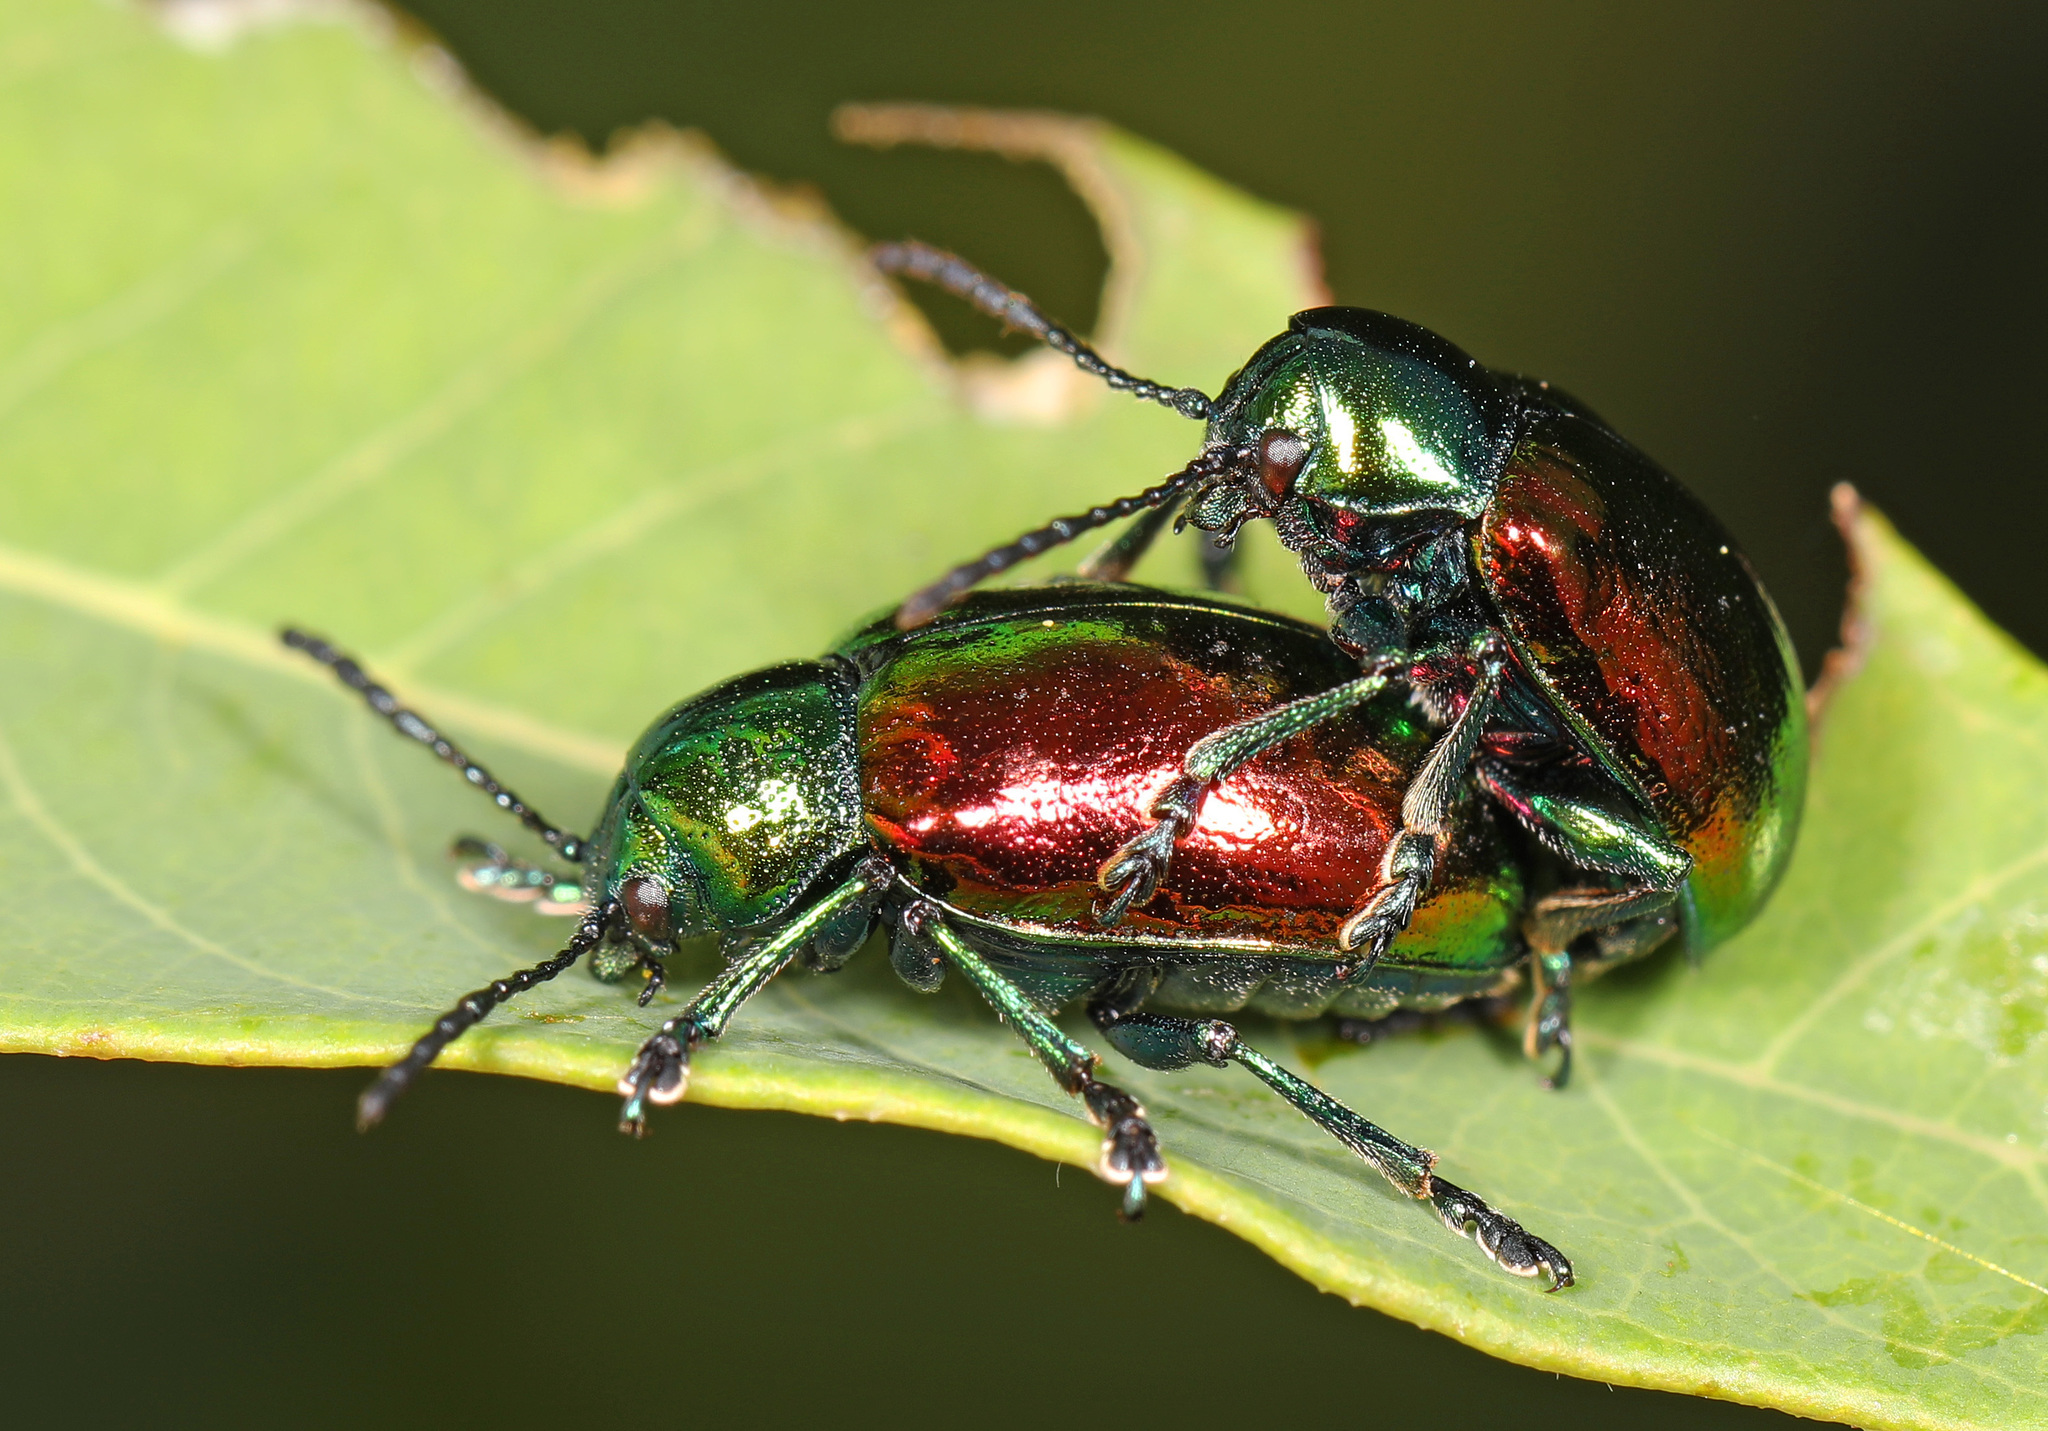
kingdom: Animalia
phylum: Arthropoda
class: Insecta
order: Coleoptera
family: Chrysomelidae
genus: Chrysochus
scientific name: Chrysochus auratus
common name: Dogbane leaf beetle
